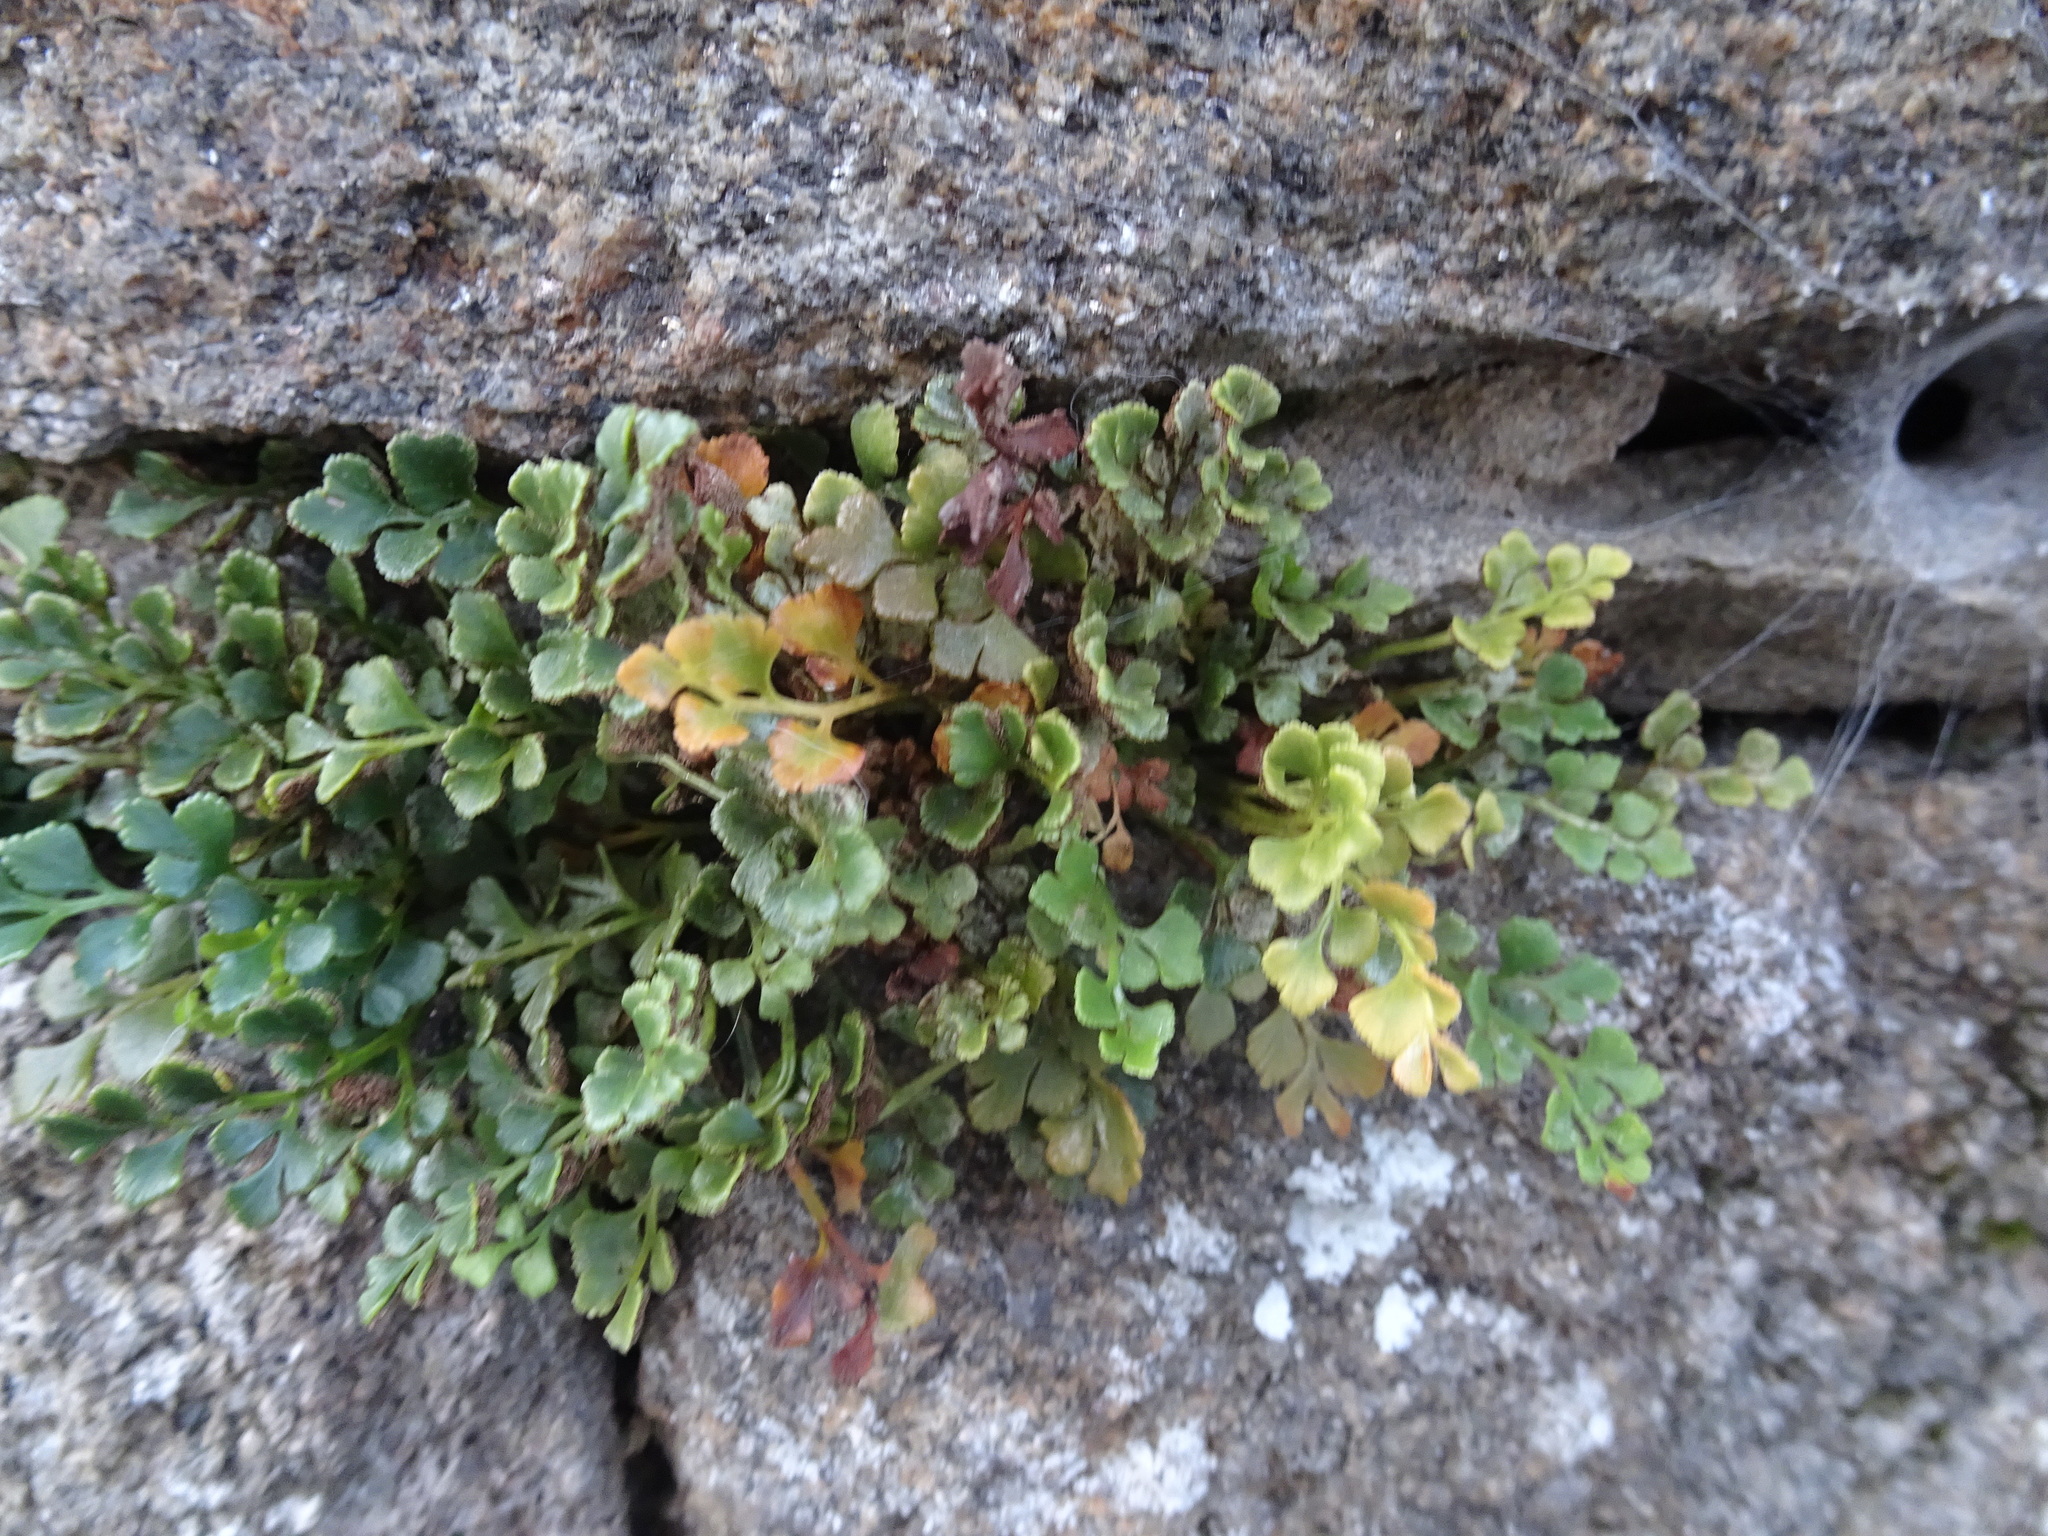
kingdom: Plantae
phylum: Tracheophyta
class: Polypodiopsida
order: Polypodiales
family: Aspleniaceae
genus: Asplenium
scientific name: Asplenium ruta-muraria
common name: Wall-rue
